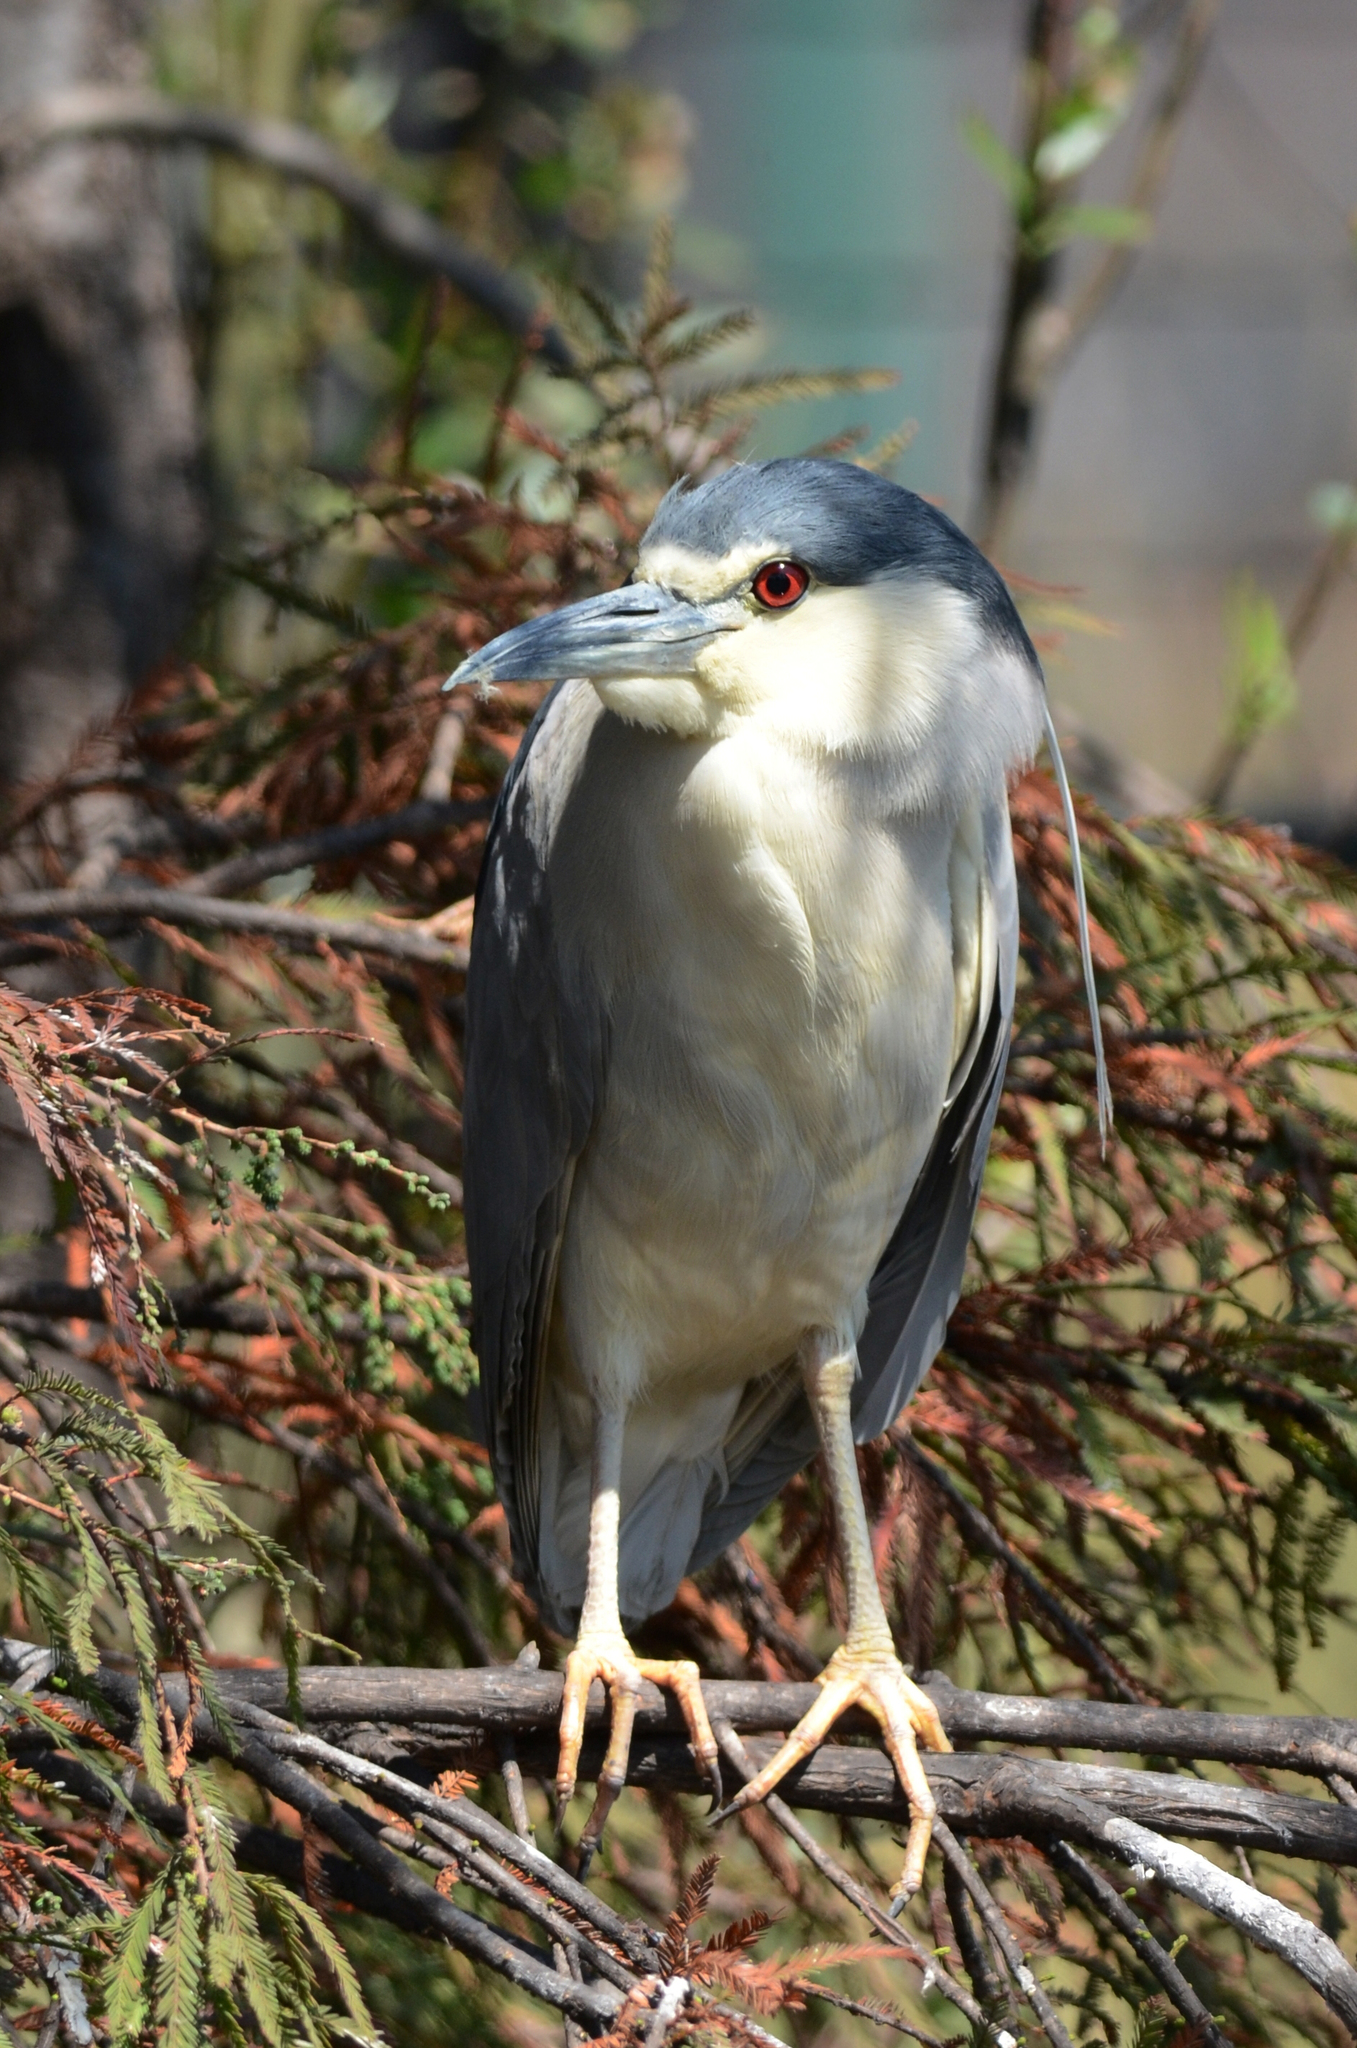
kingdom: Animalia
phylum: Chordata
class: Aves
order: Pelecaniformes
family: Ardeidae
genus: Nycticorax
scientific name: Nycticorax nycticorax
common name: Black-crowned night heron
